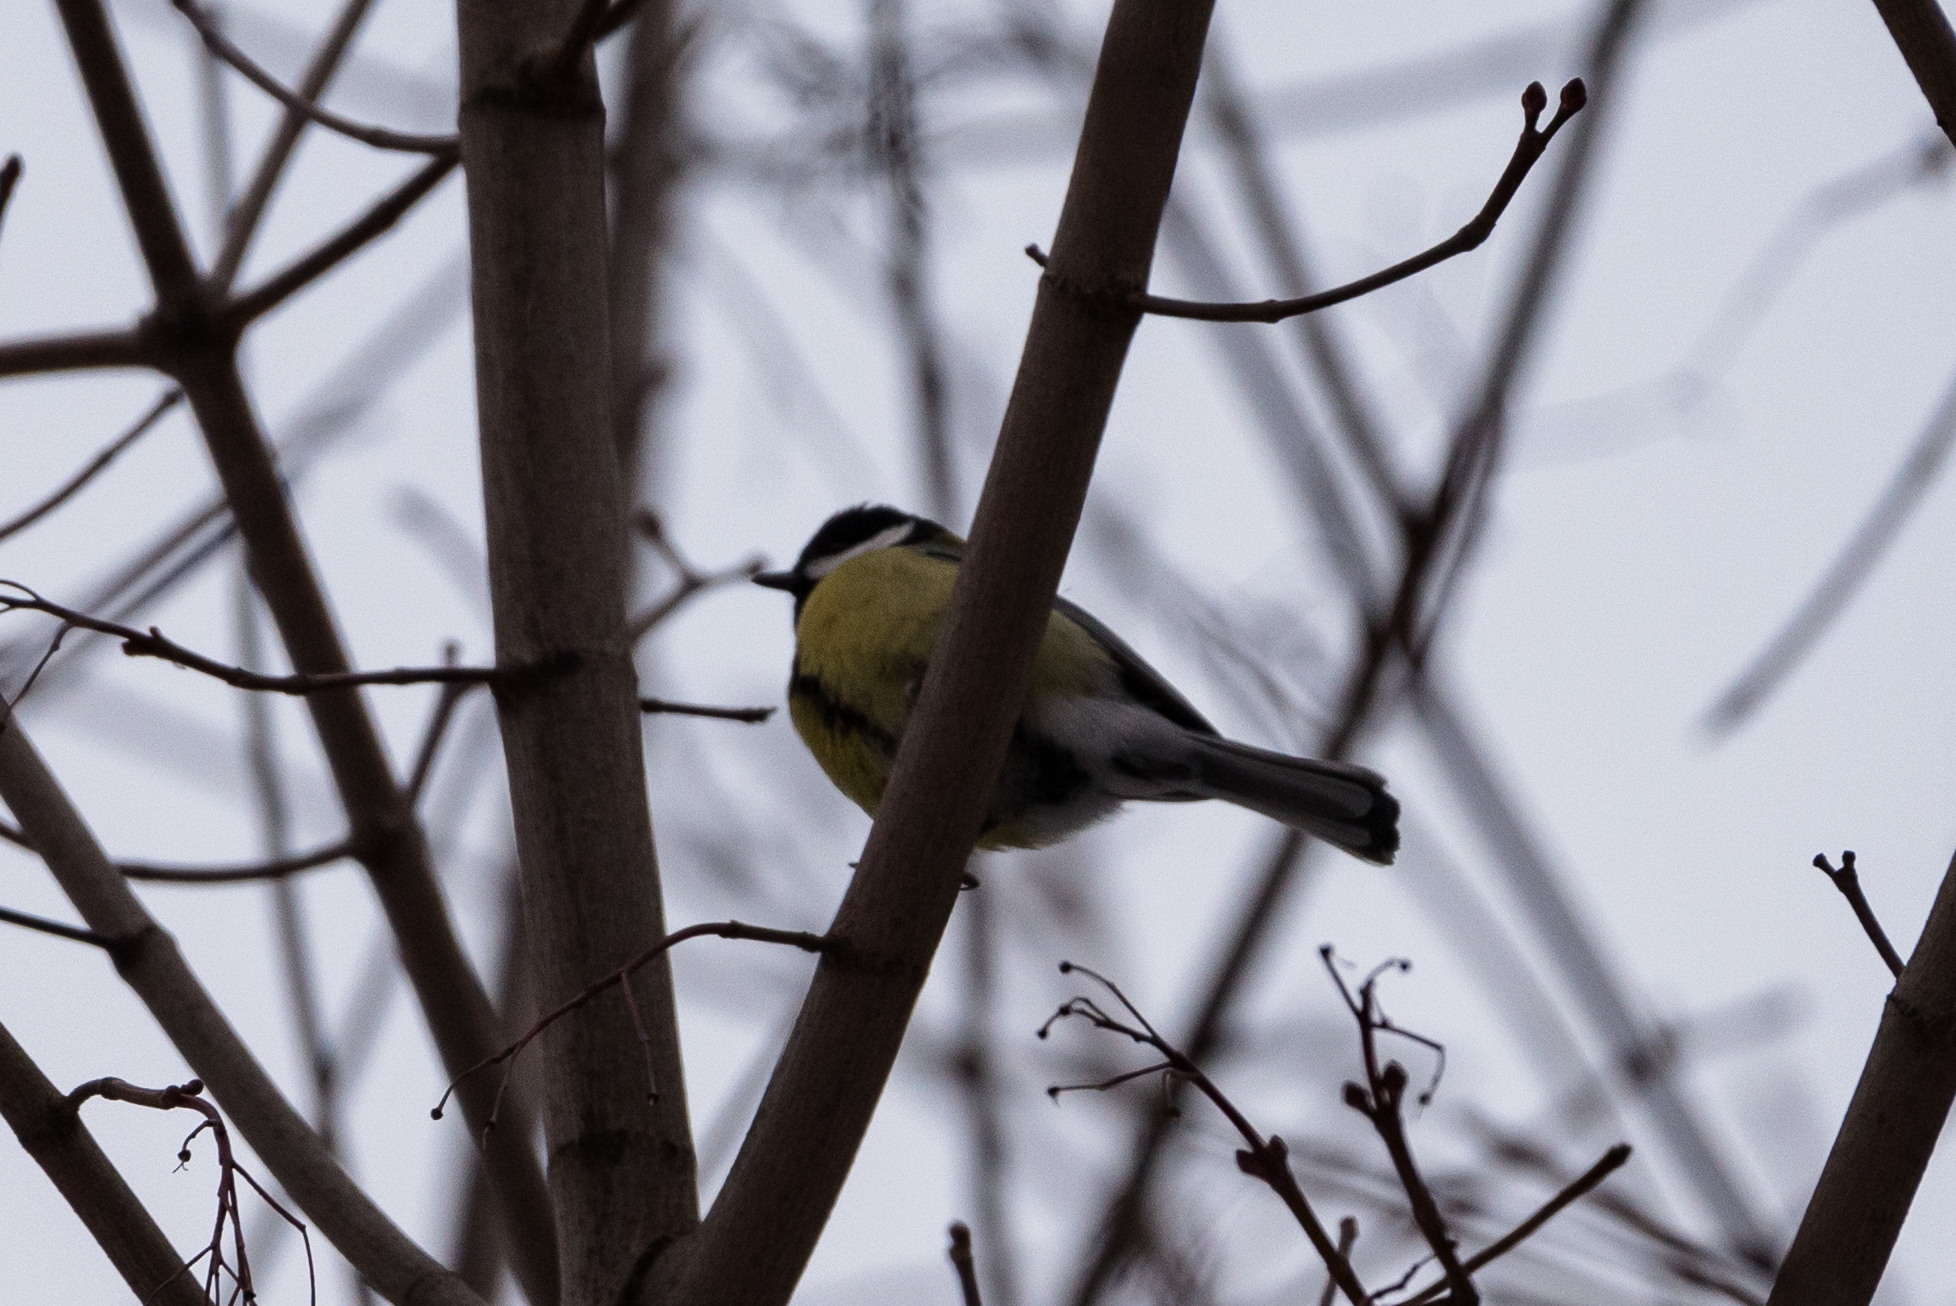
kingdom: Animalia
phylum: Chordata
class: Aves
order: Passeriformes
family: Paridae
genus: Parus
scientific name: Parus major
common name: Great tit
